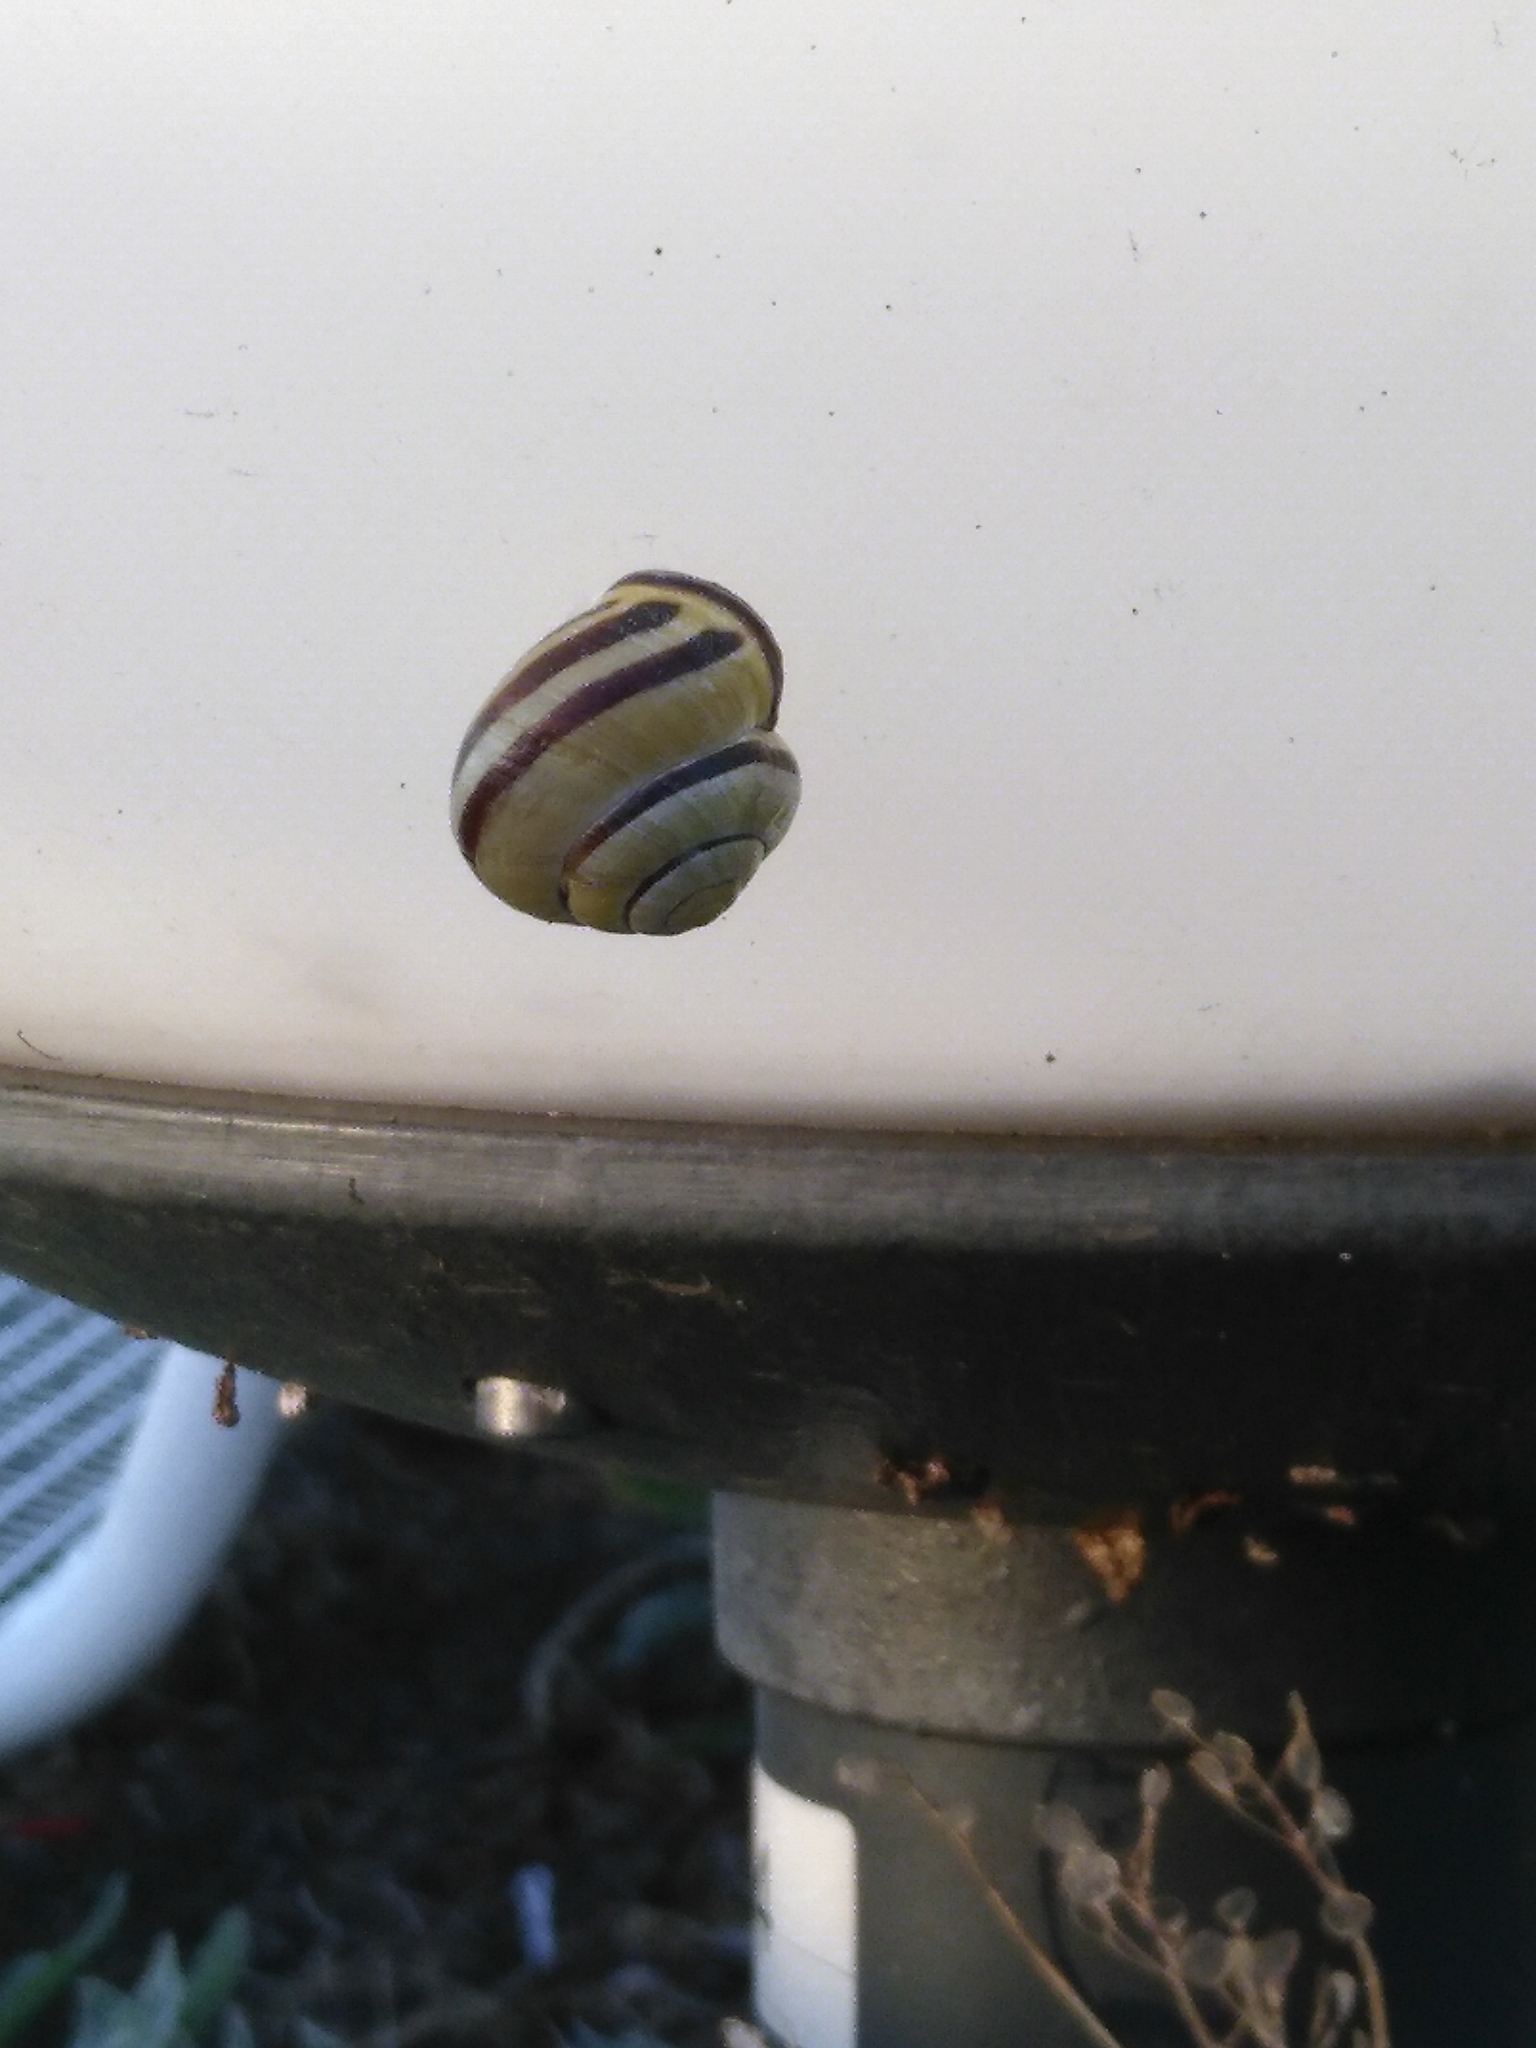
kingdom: Animalia
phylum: Mollusca
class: Gastropoda
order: Stylommatophora
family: Helicidae
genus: Cepaea
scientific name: Cepaea nemoralis
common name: Grovesnail
